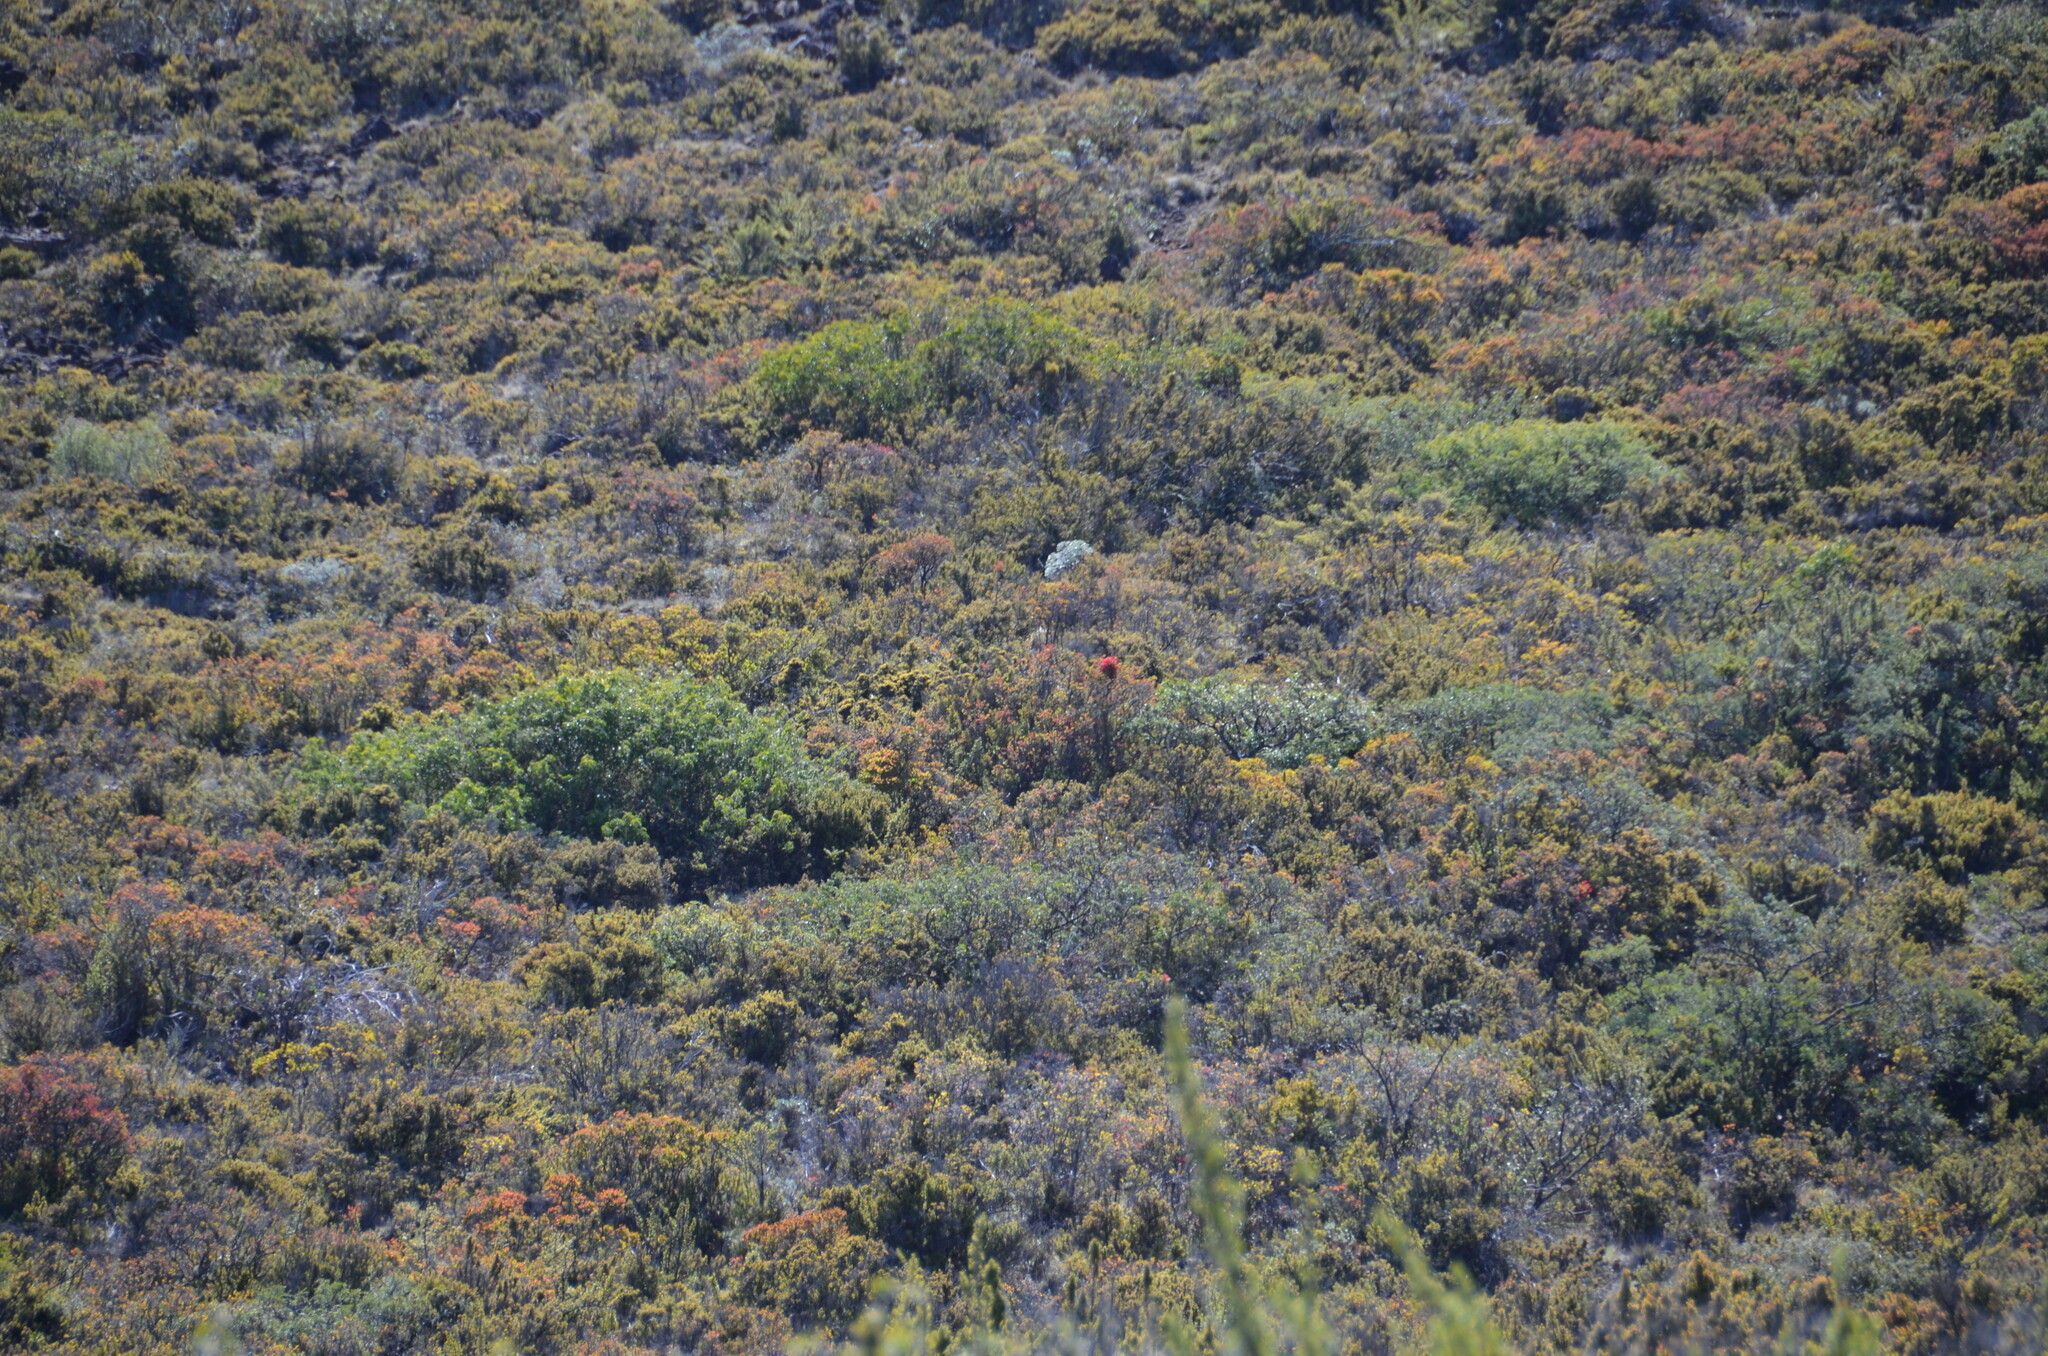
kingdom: Plantae
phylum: Tracheophyta
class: Magnoliopsida
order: Fabales
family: Fabaceae
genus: Sophora
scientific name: Sophora chrysophylla
